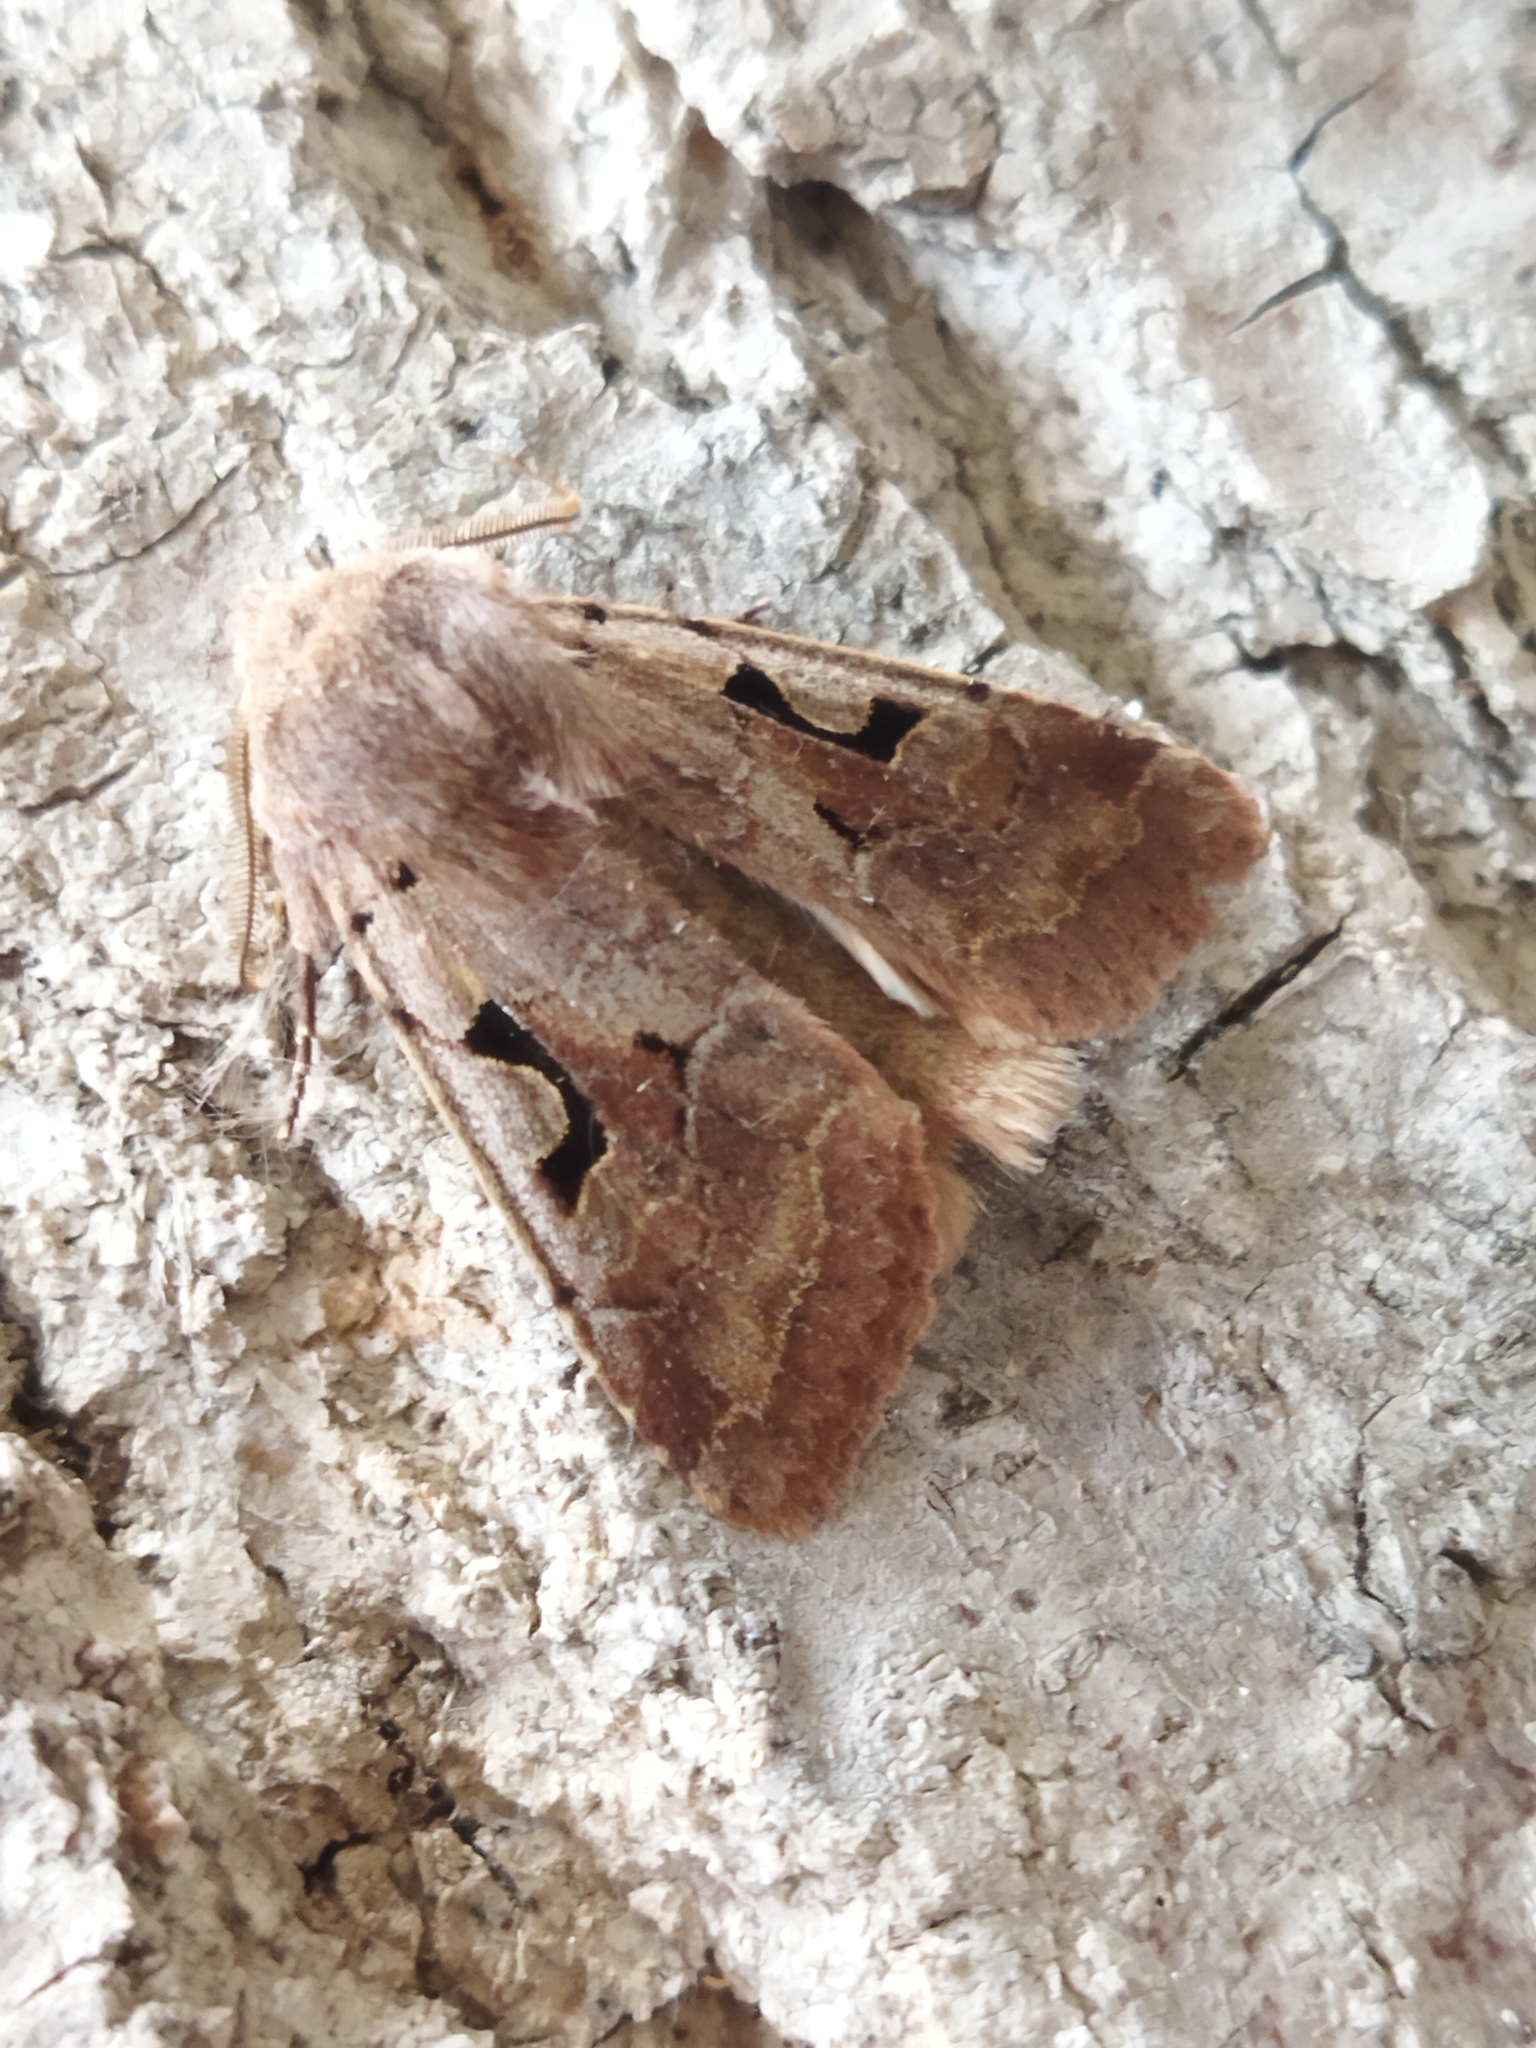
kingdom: Animalia
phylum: Arthropoda
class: Insecta
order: Lepidoptera
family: Noctuidae
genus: Orthosia
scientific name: Orthosia gothica
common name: Hebrew character
